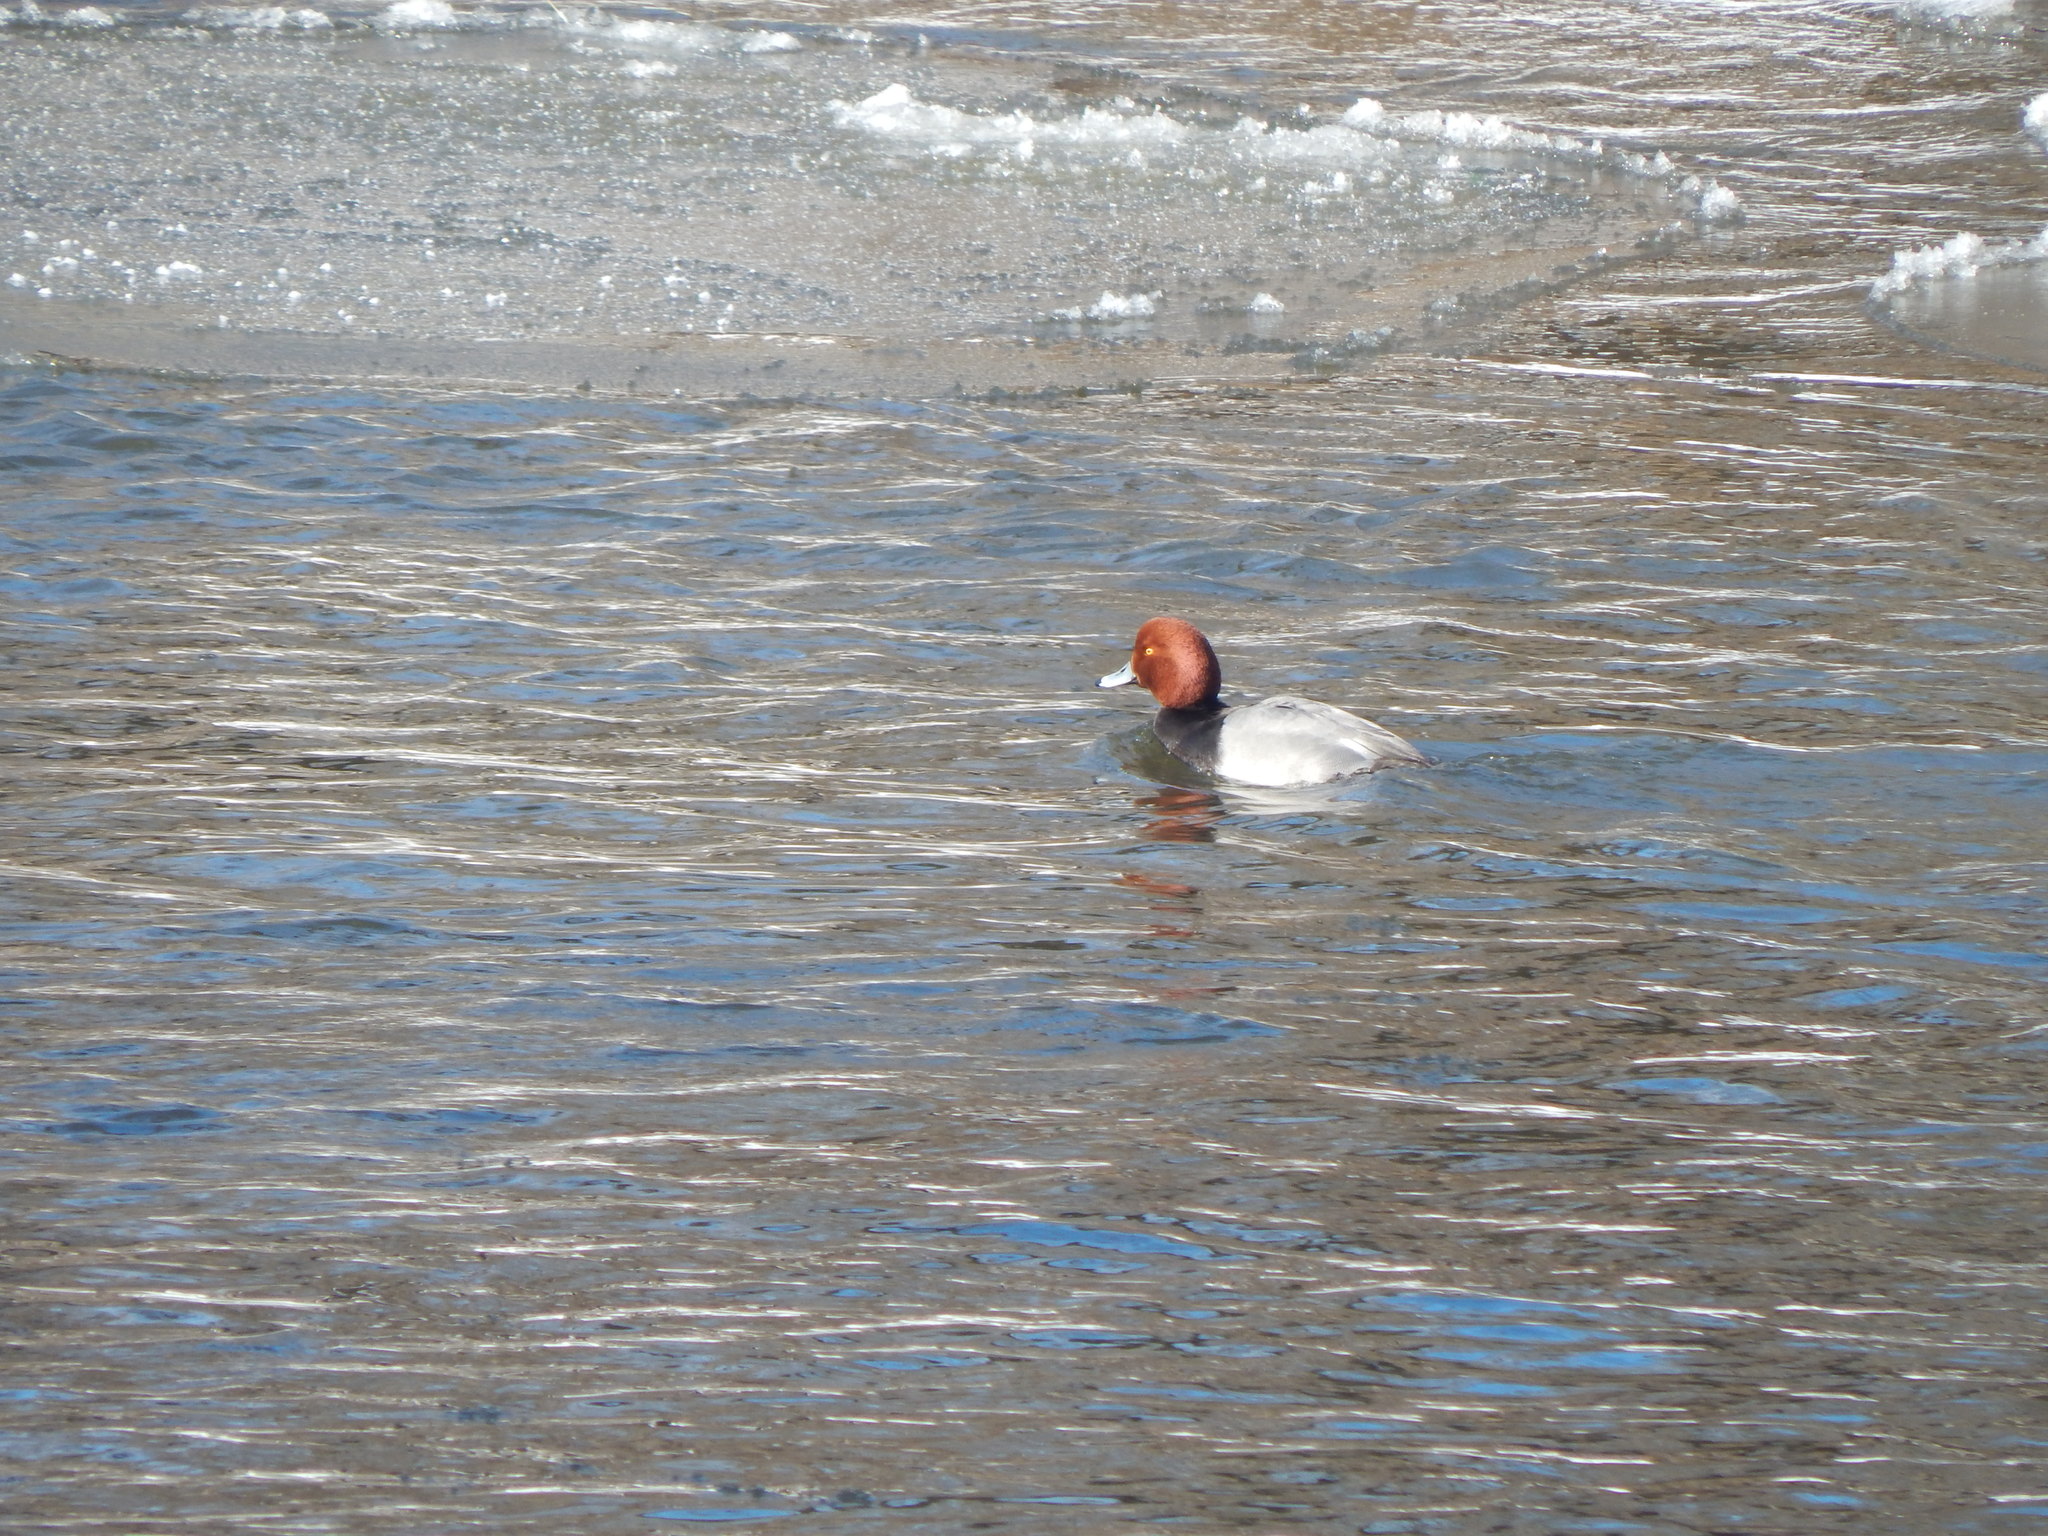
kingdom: Animalia
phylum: Chordata
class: Aves
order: Anseriformes
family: Anatidae
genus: Aythya
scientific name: Aythya americana
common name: Redhead
